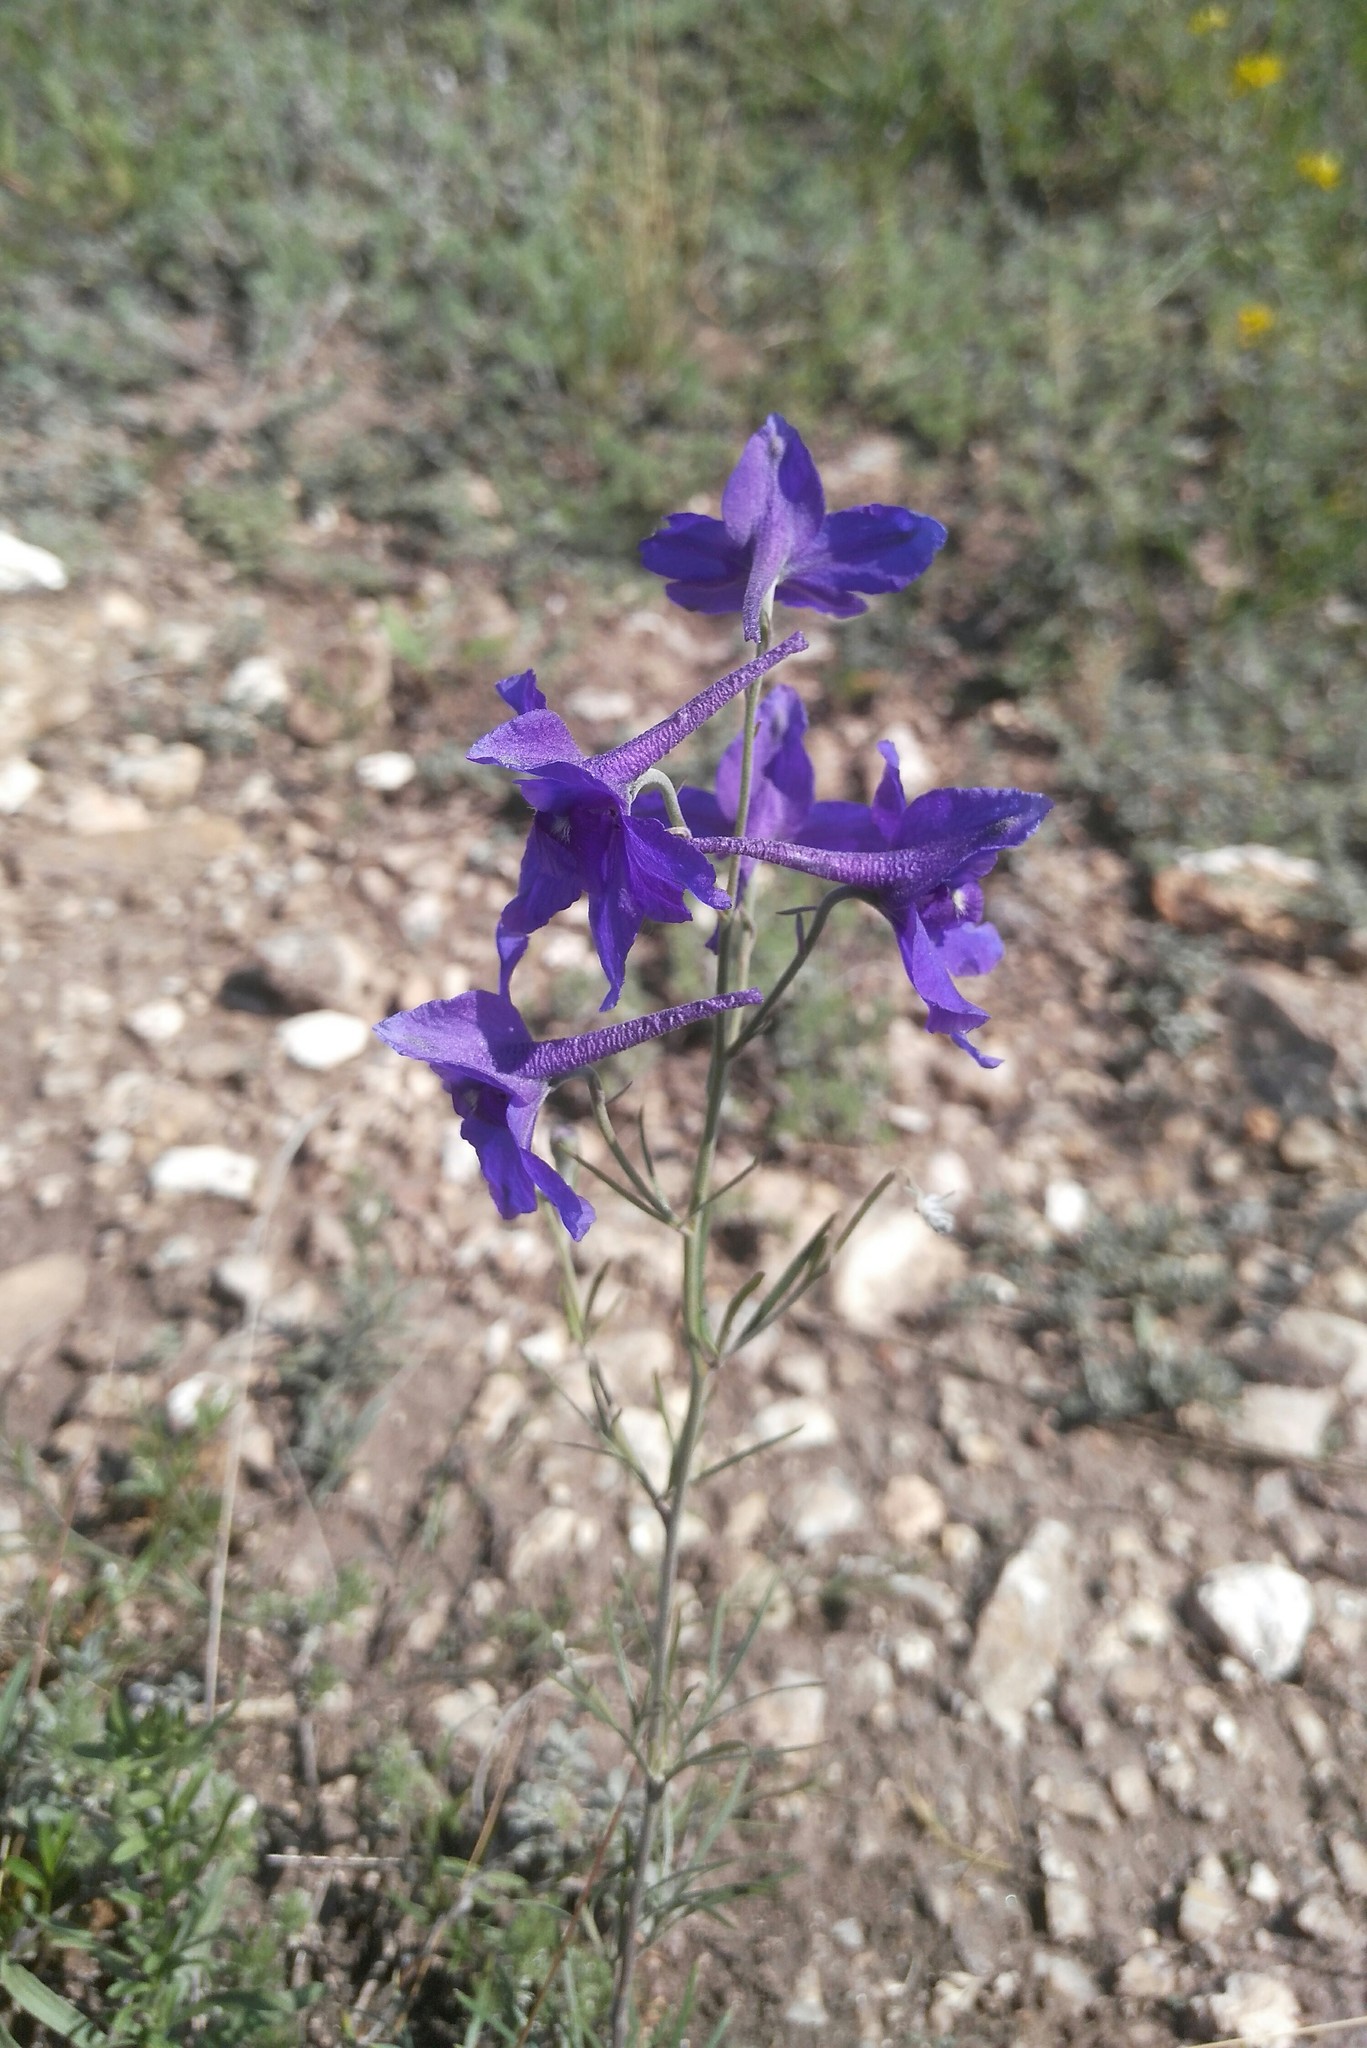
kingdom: Plantae
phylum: Tracheophyta
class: Magnoliopsida
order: Ranunculales
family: Ranunculaceae
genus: Delphinium
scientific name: Delphinium grandiflorum
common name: Siberian larkspur
